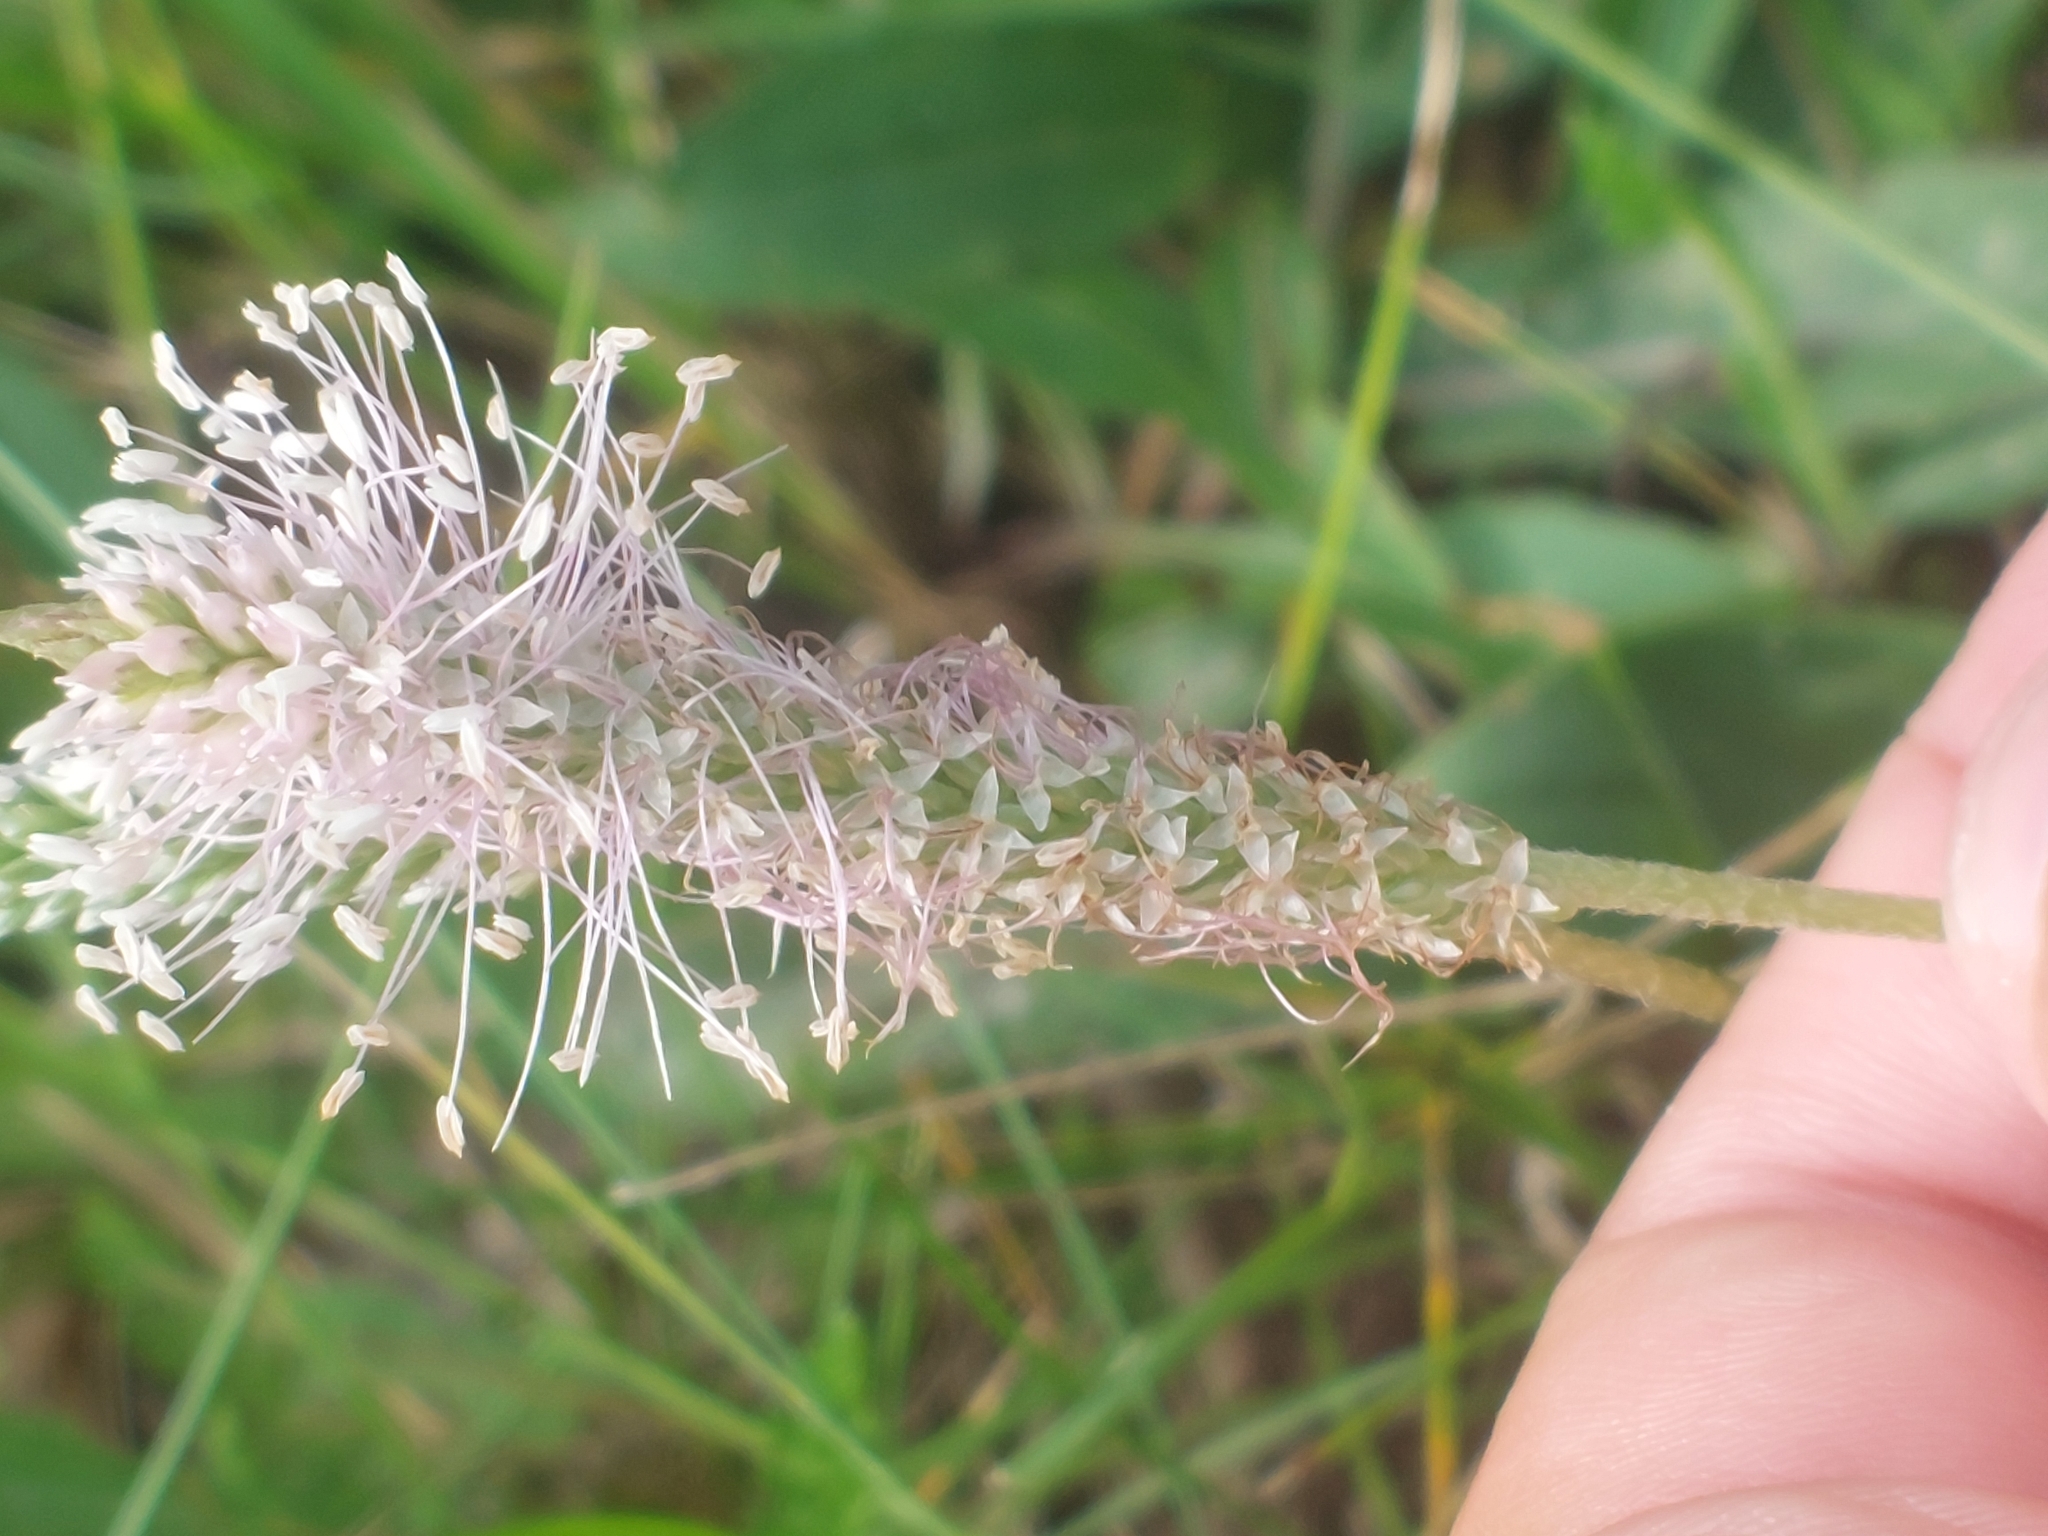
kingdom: Plantae
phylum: Tracheophyta
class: Magnoliopsida
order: Lamiales
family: Plantaginaceae
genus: Plantago
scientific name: Plantago media
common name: Hoary plantain
